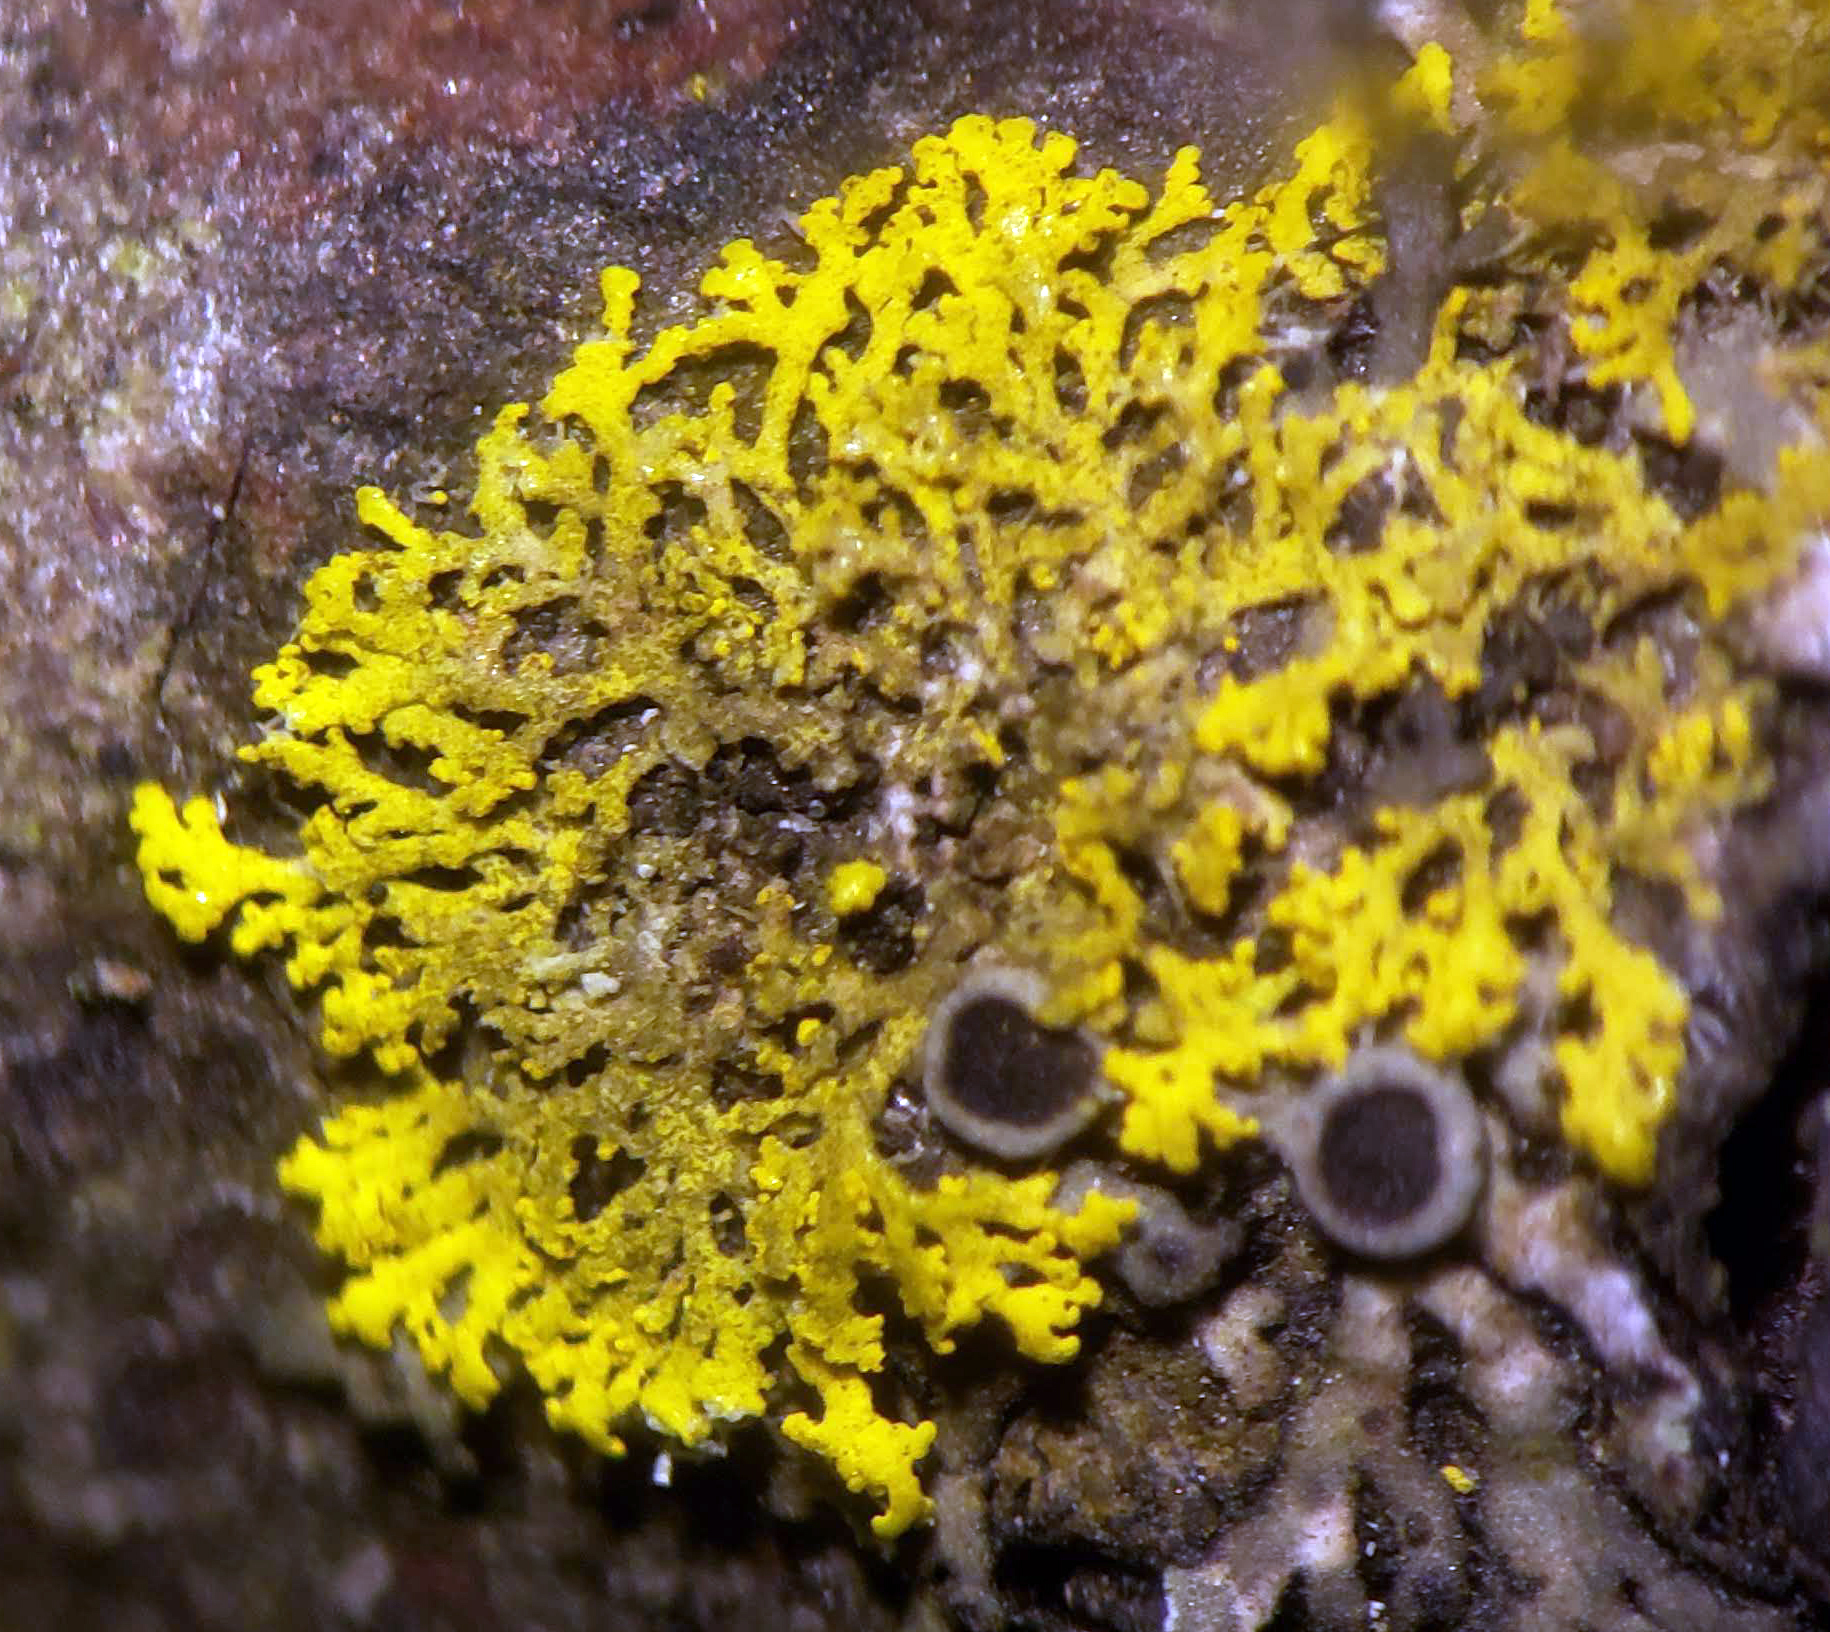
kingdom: Fungi
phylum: Ascomycota
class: Candelariomycetes
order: Candelariales
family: Candelariaceae
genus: Candelaria
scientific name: Candelaria concolor
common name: Candleflame lichen
